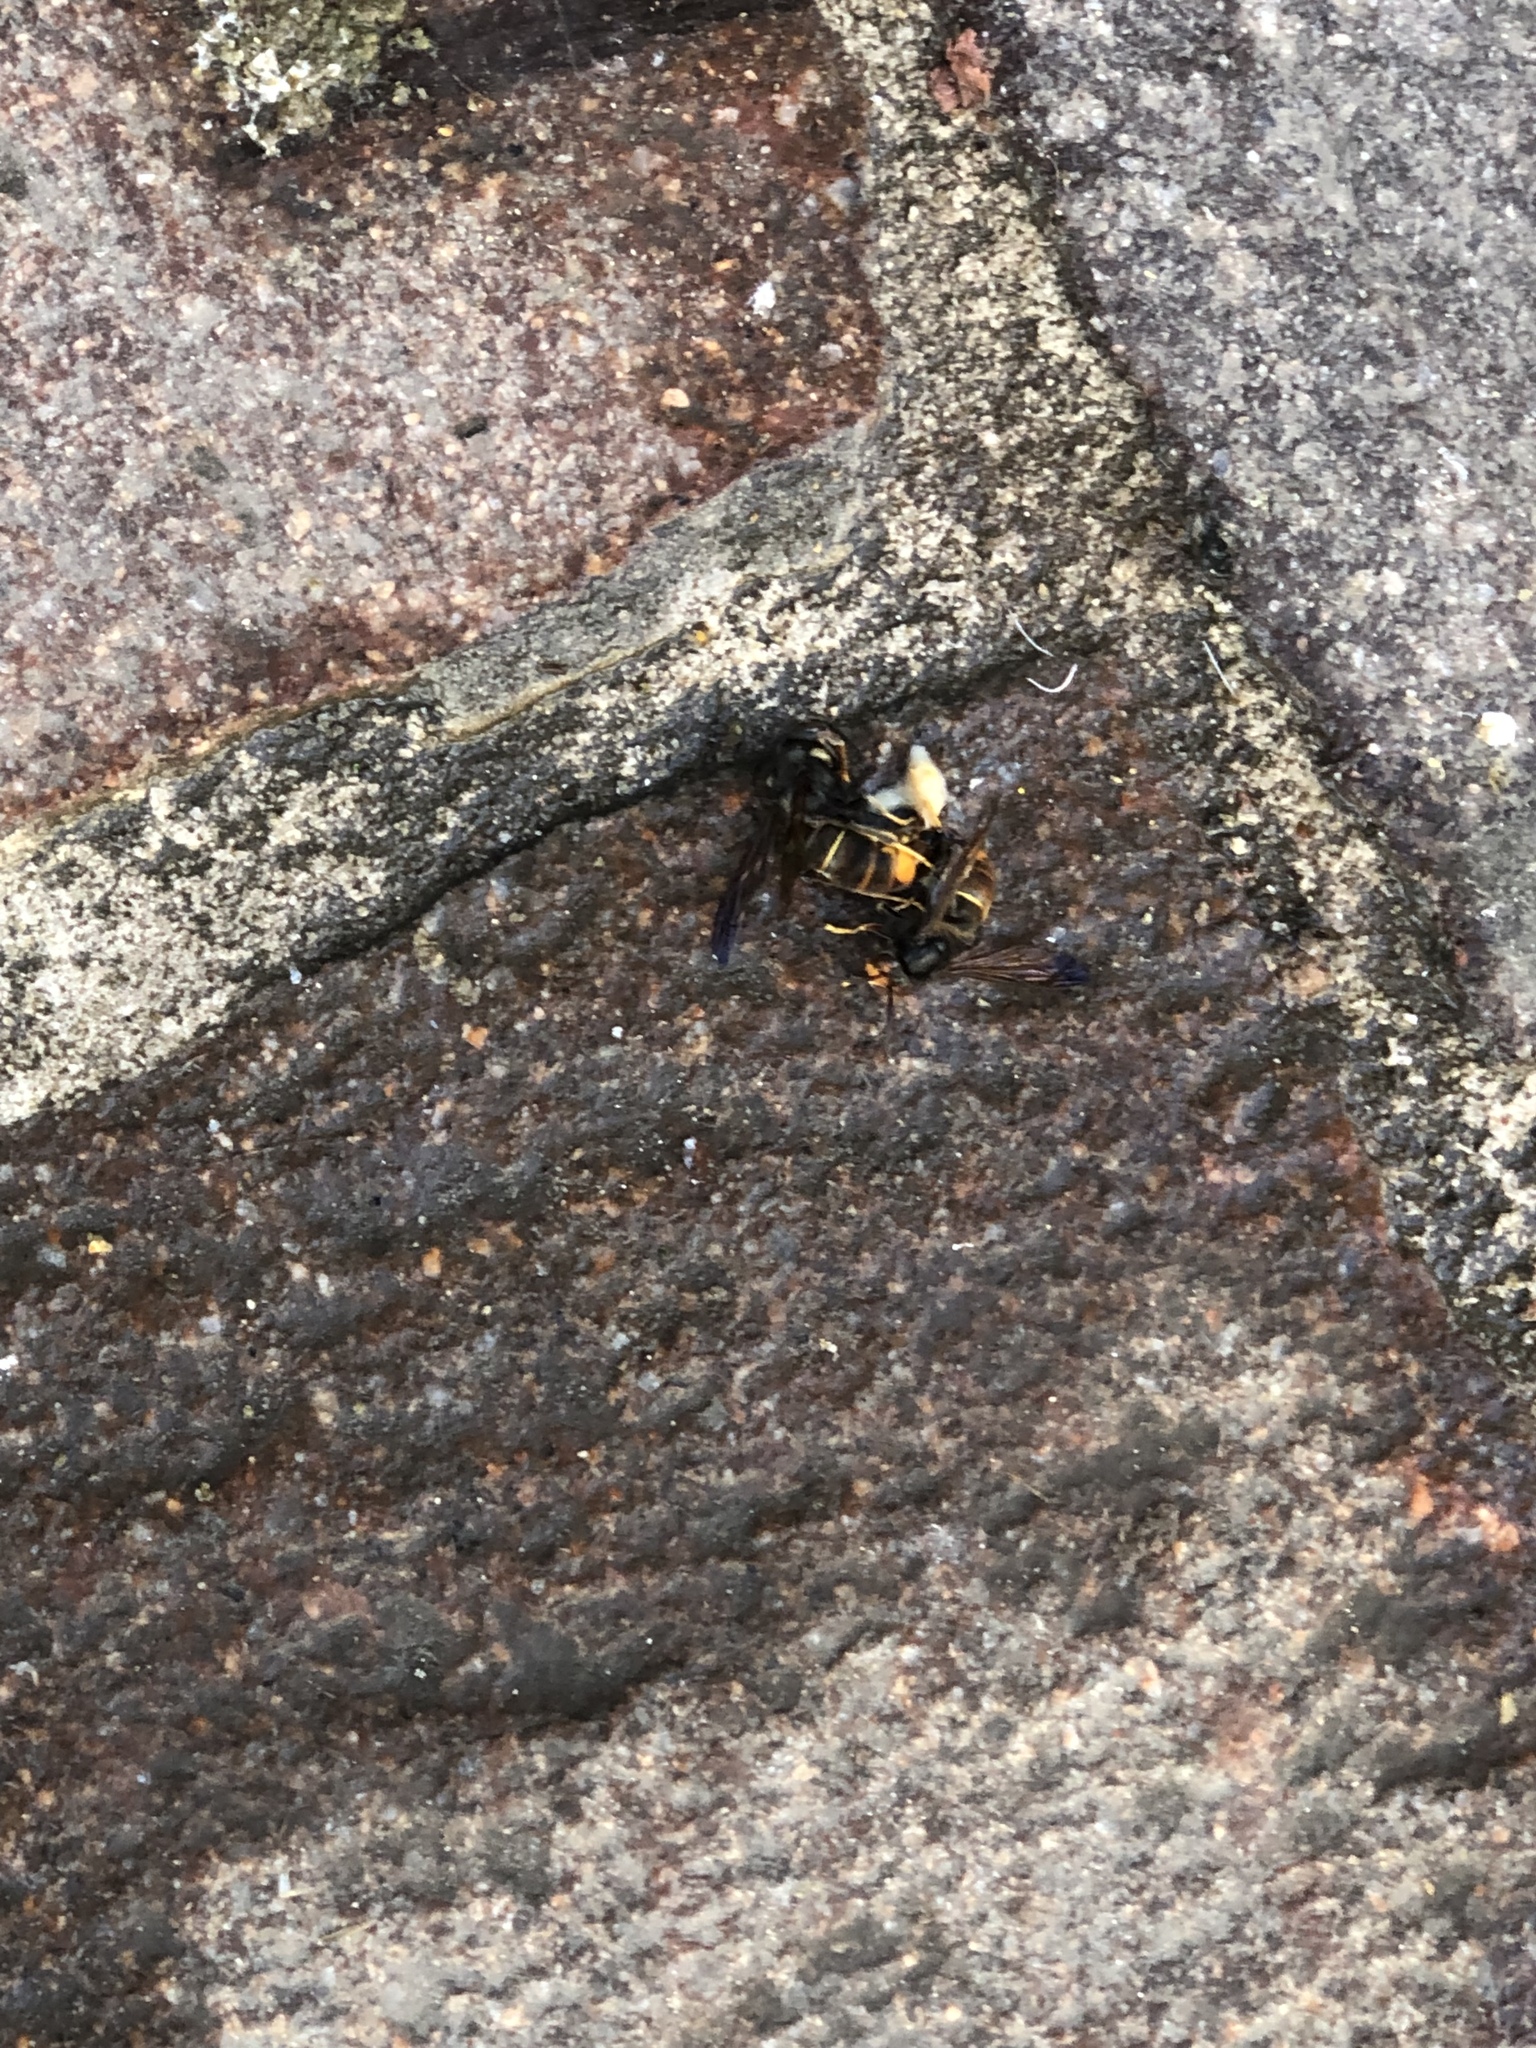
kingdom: Animalia
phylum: Arthropoda
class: Insecta
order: Hymenoptera
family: Vespidae
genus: Vespa
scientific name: Vespa velutina
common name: Asian hornet
